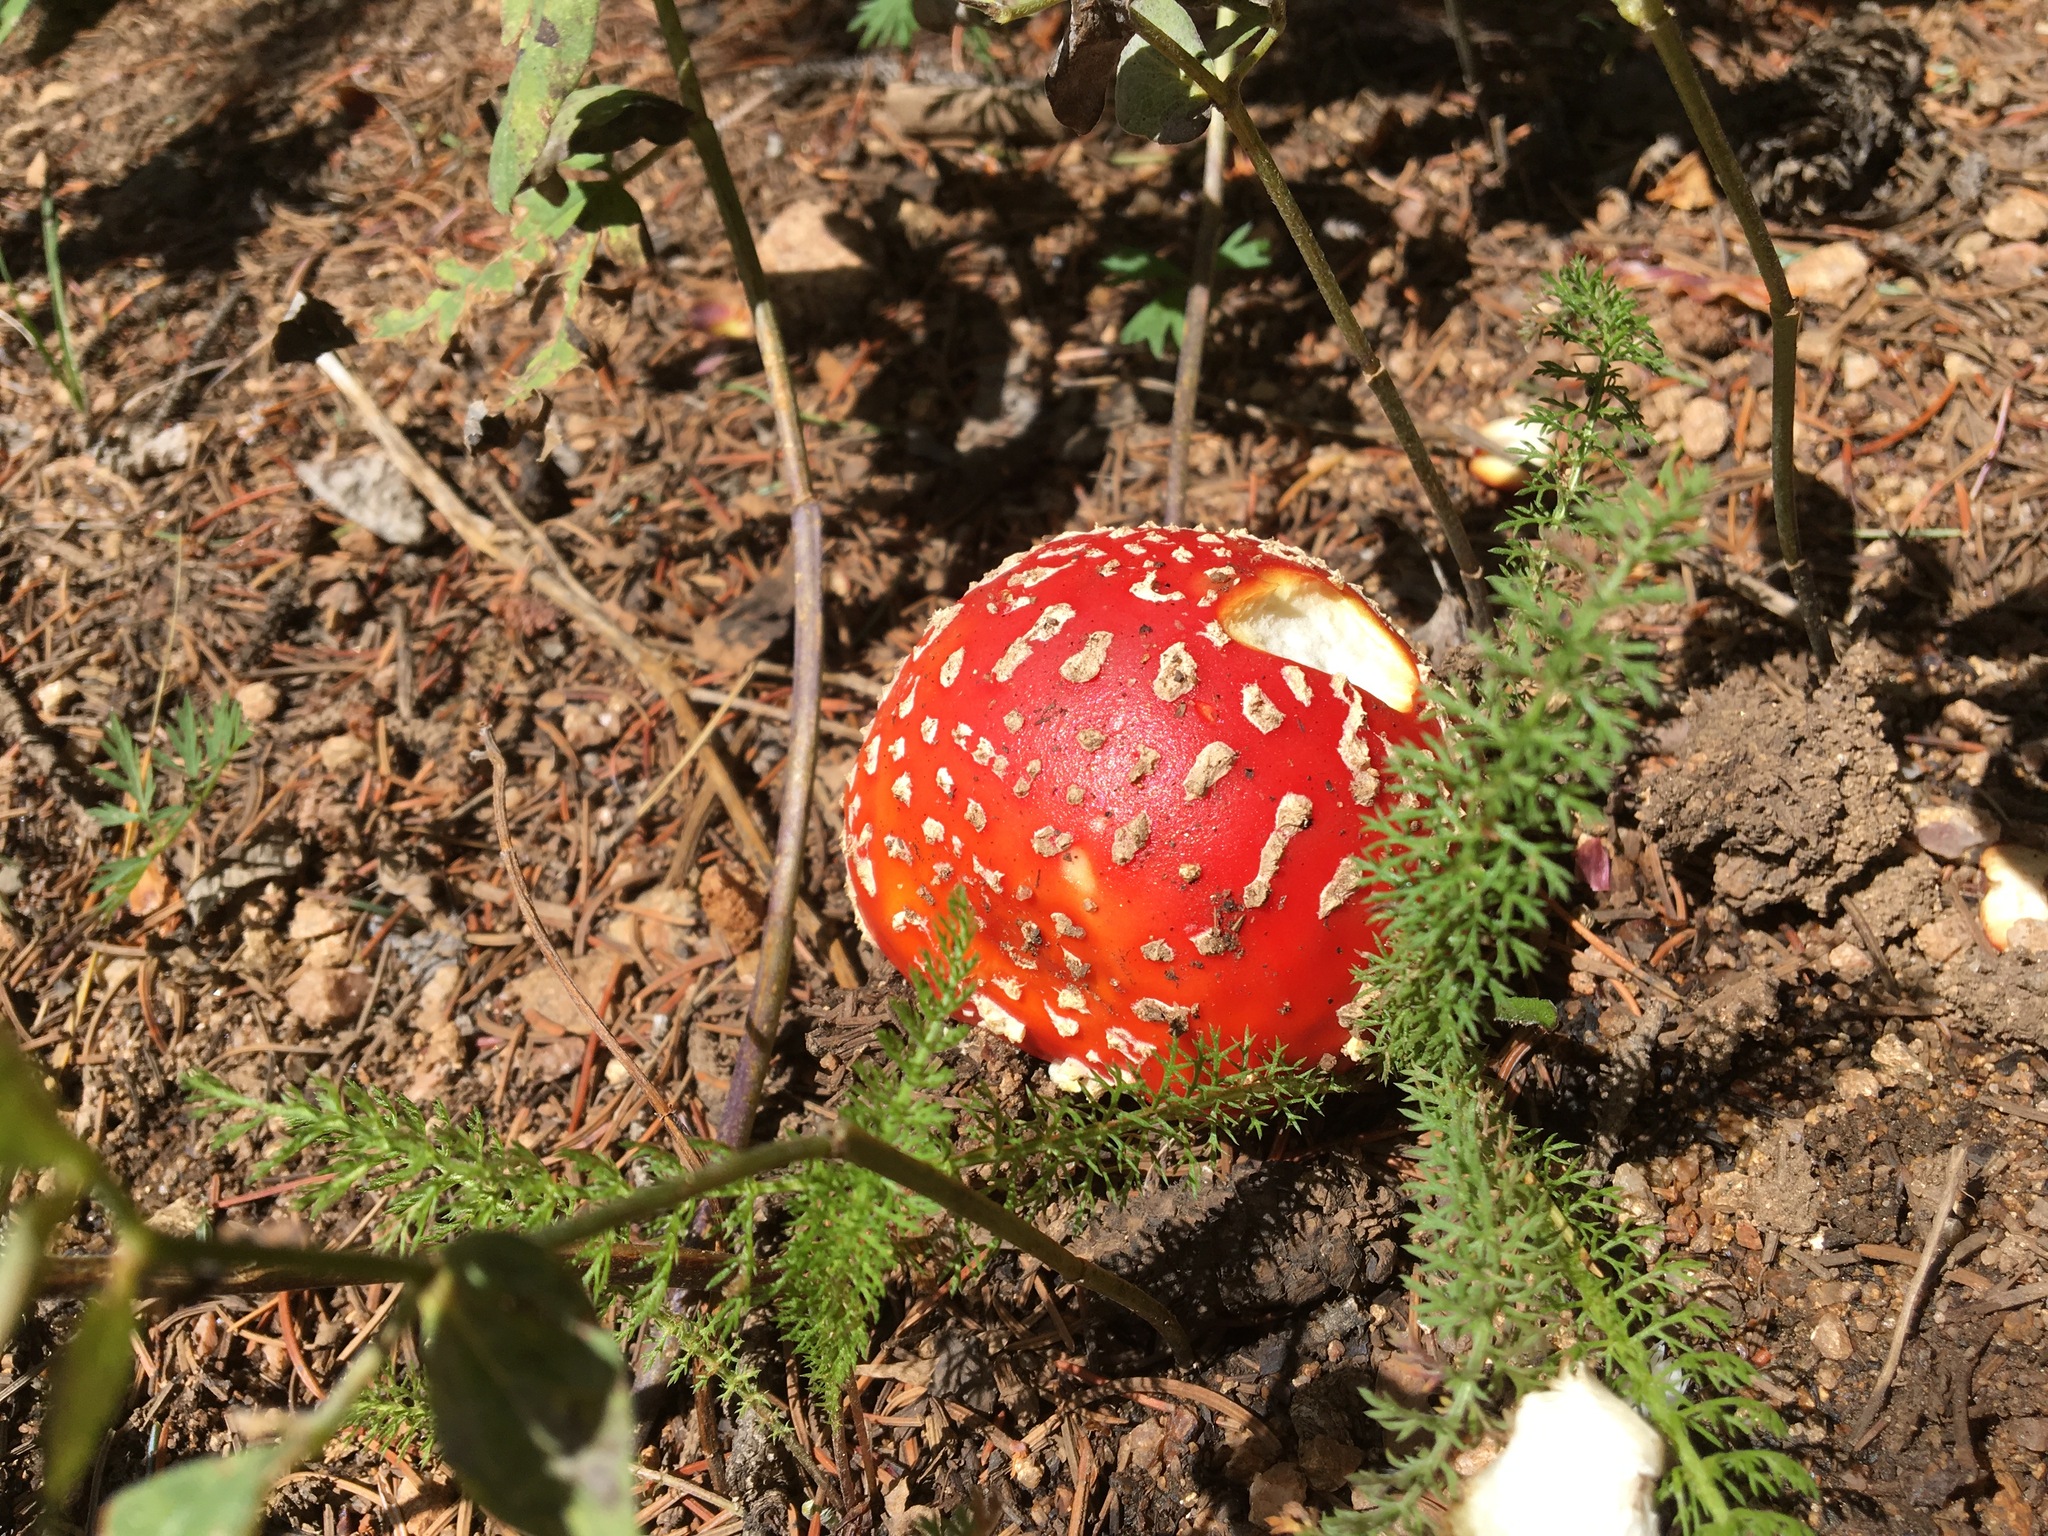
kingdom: Fungi
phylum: Basidiomycota
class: Agaricomycetes
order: Agaricales
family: Amanitaceae
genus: Amanita
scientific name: Amanita muscaria
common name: Fly agaric
